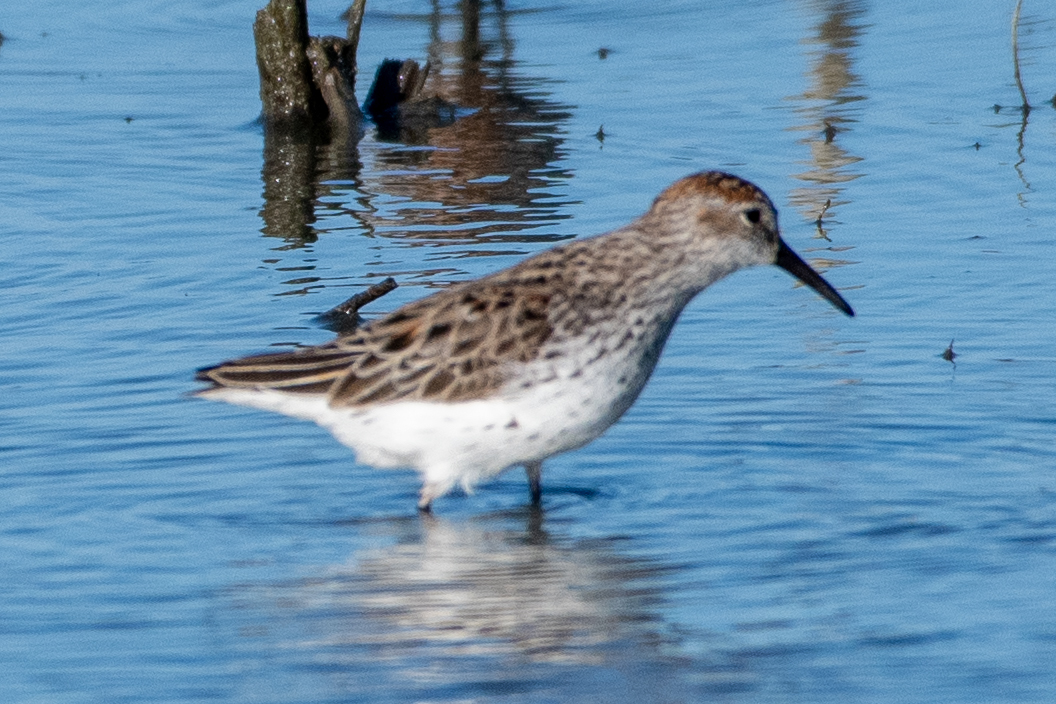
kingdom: Animalia
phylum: Chordata
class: Aves
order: Charadriiformes
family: Scolopacidae
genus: Calidris
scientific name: Calidris mauri
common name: Western sandpiper
